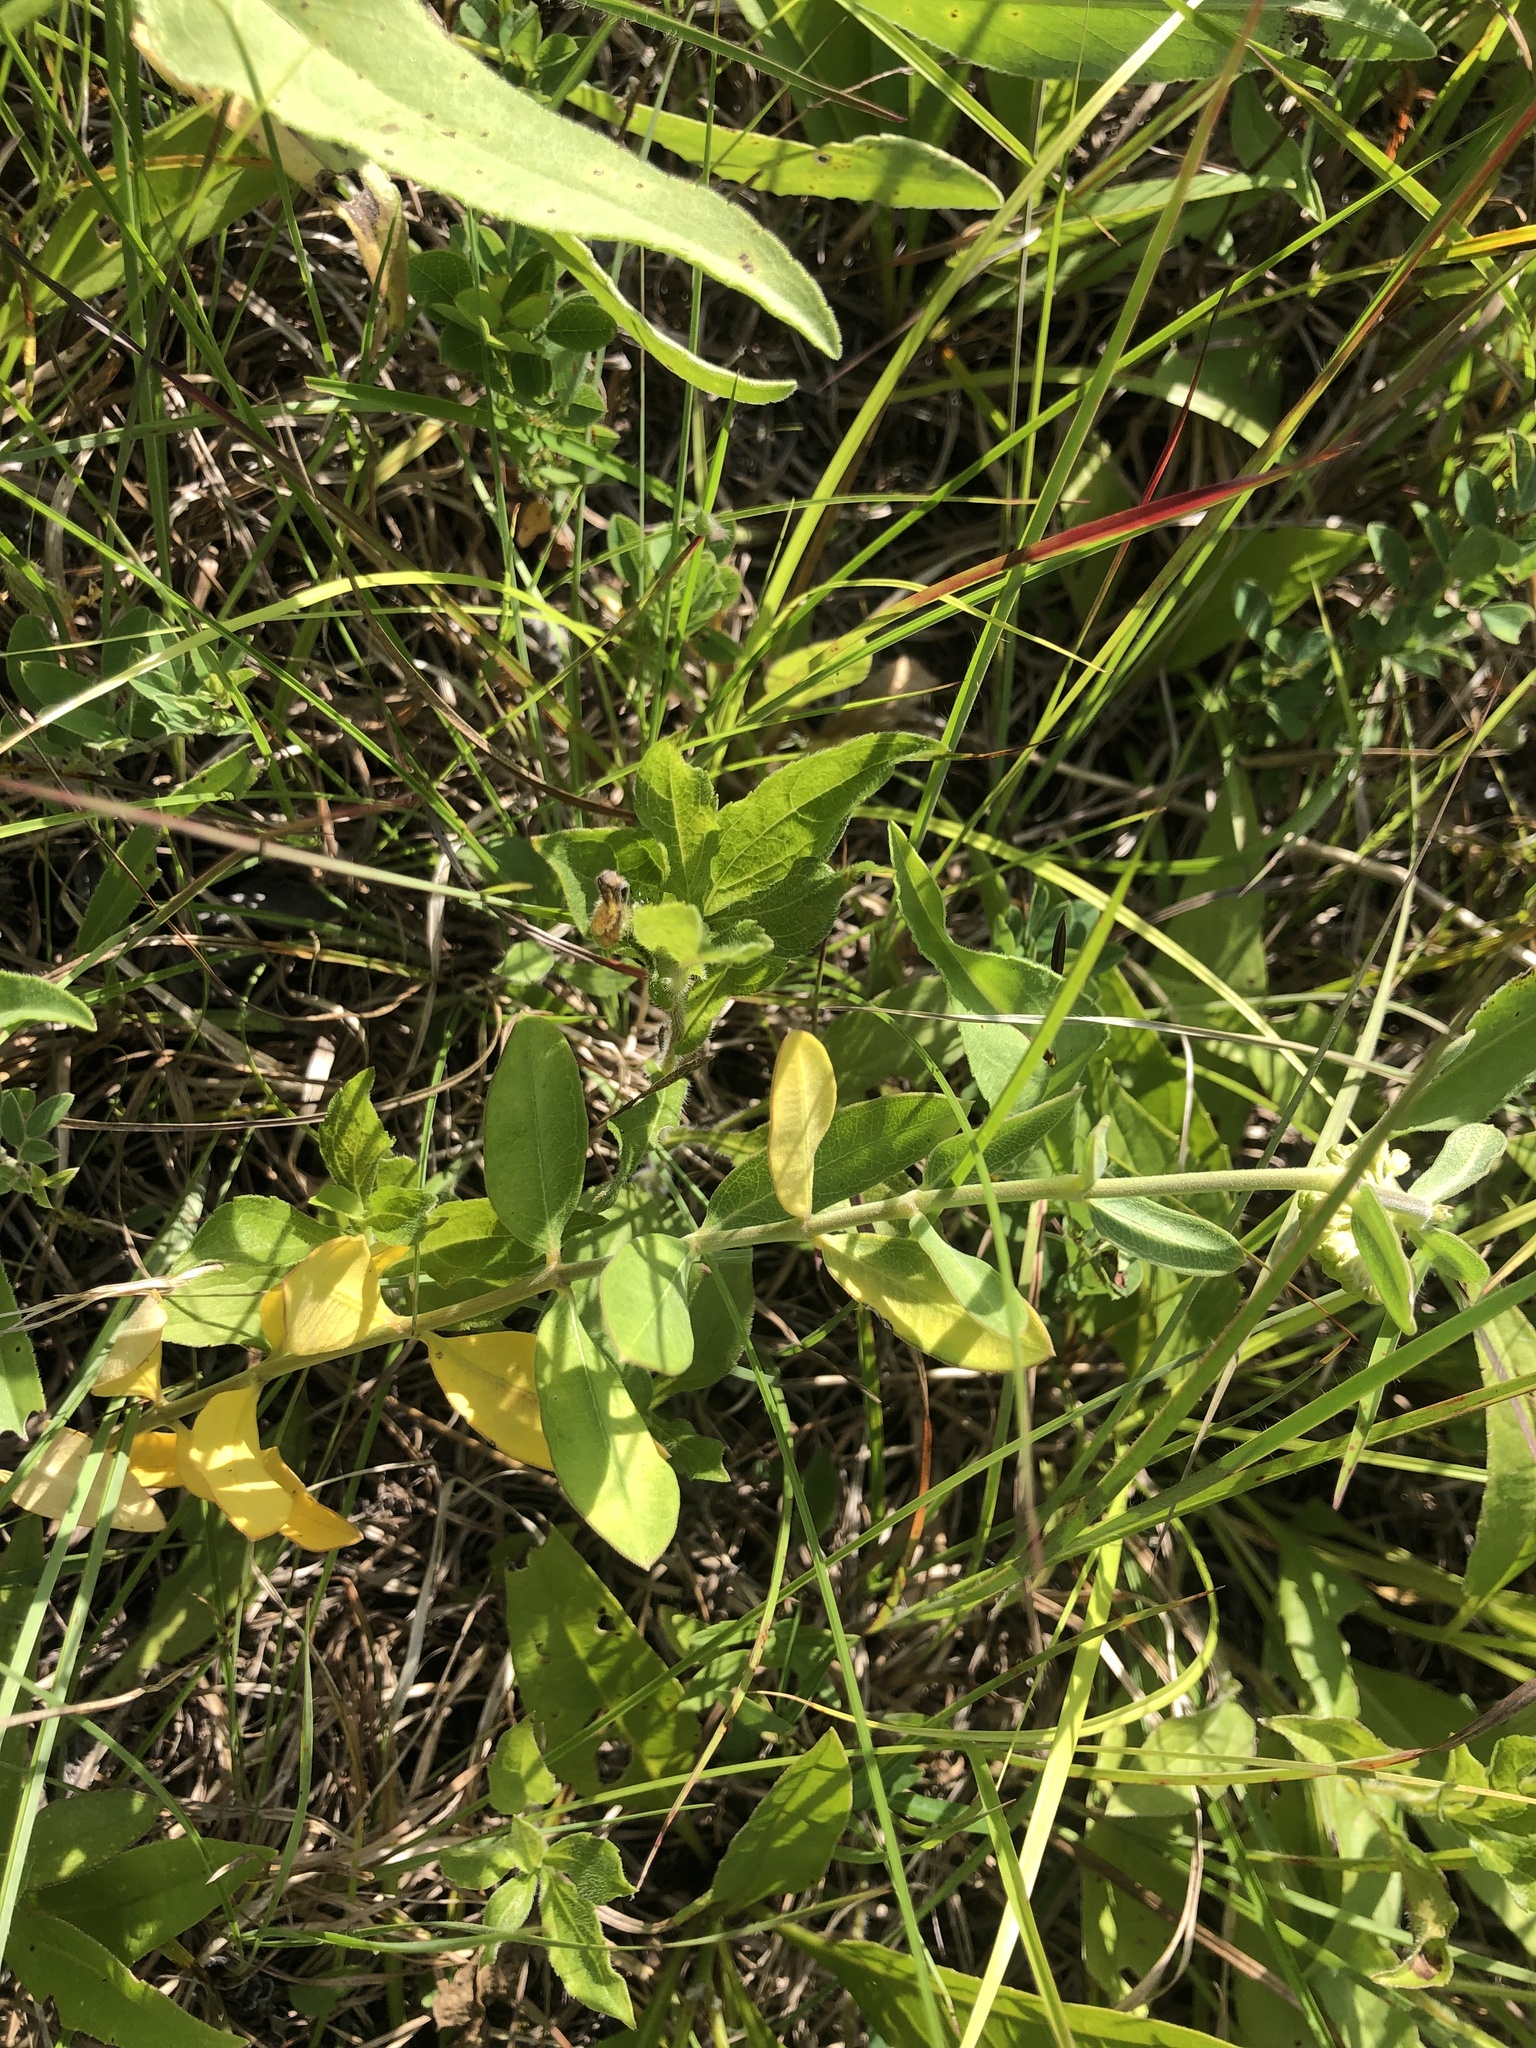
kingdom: Plantae
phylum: Tracheophyta
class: Magnoliopsida
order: Gentianales
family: Apocynaceae
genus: Asclepias
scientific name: Asclepias viridiflora
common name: Green comet milkweed
